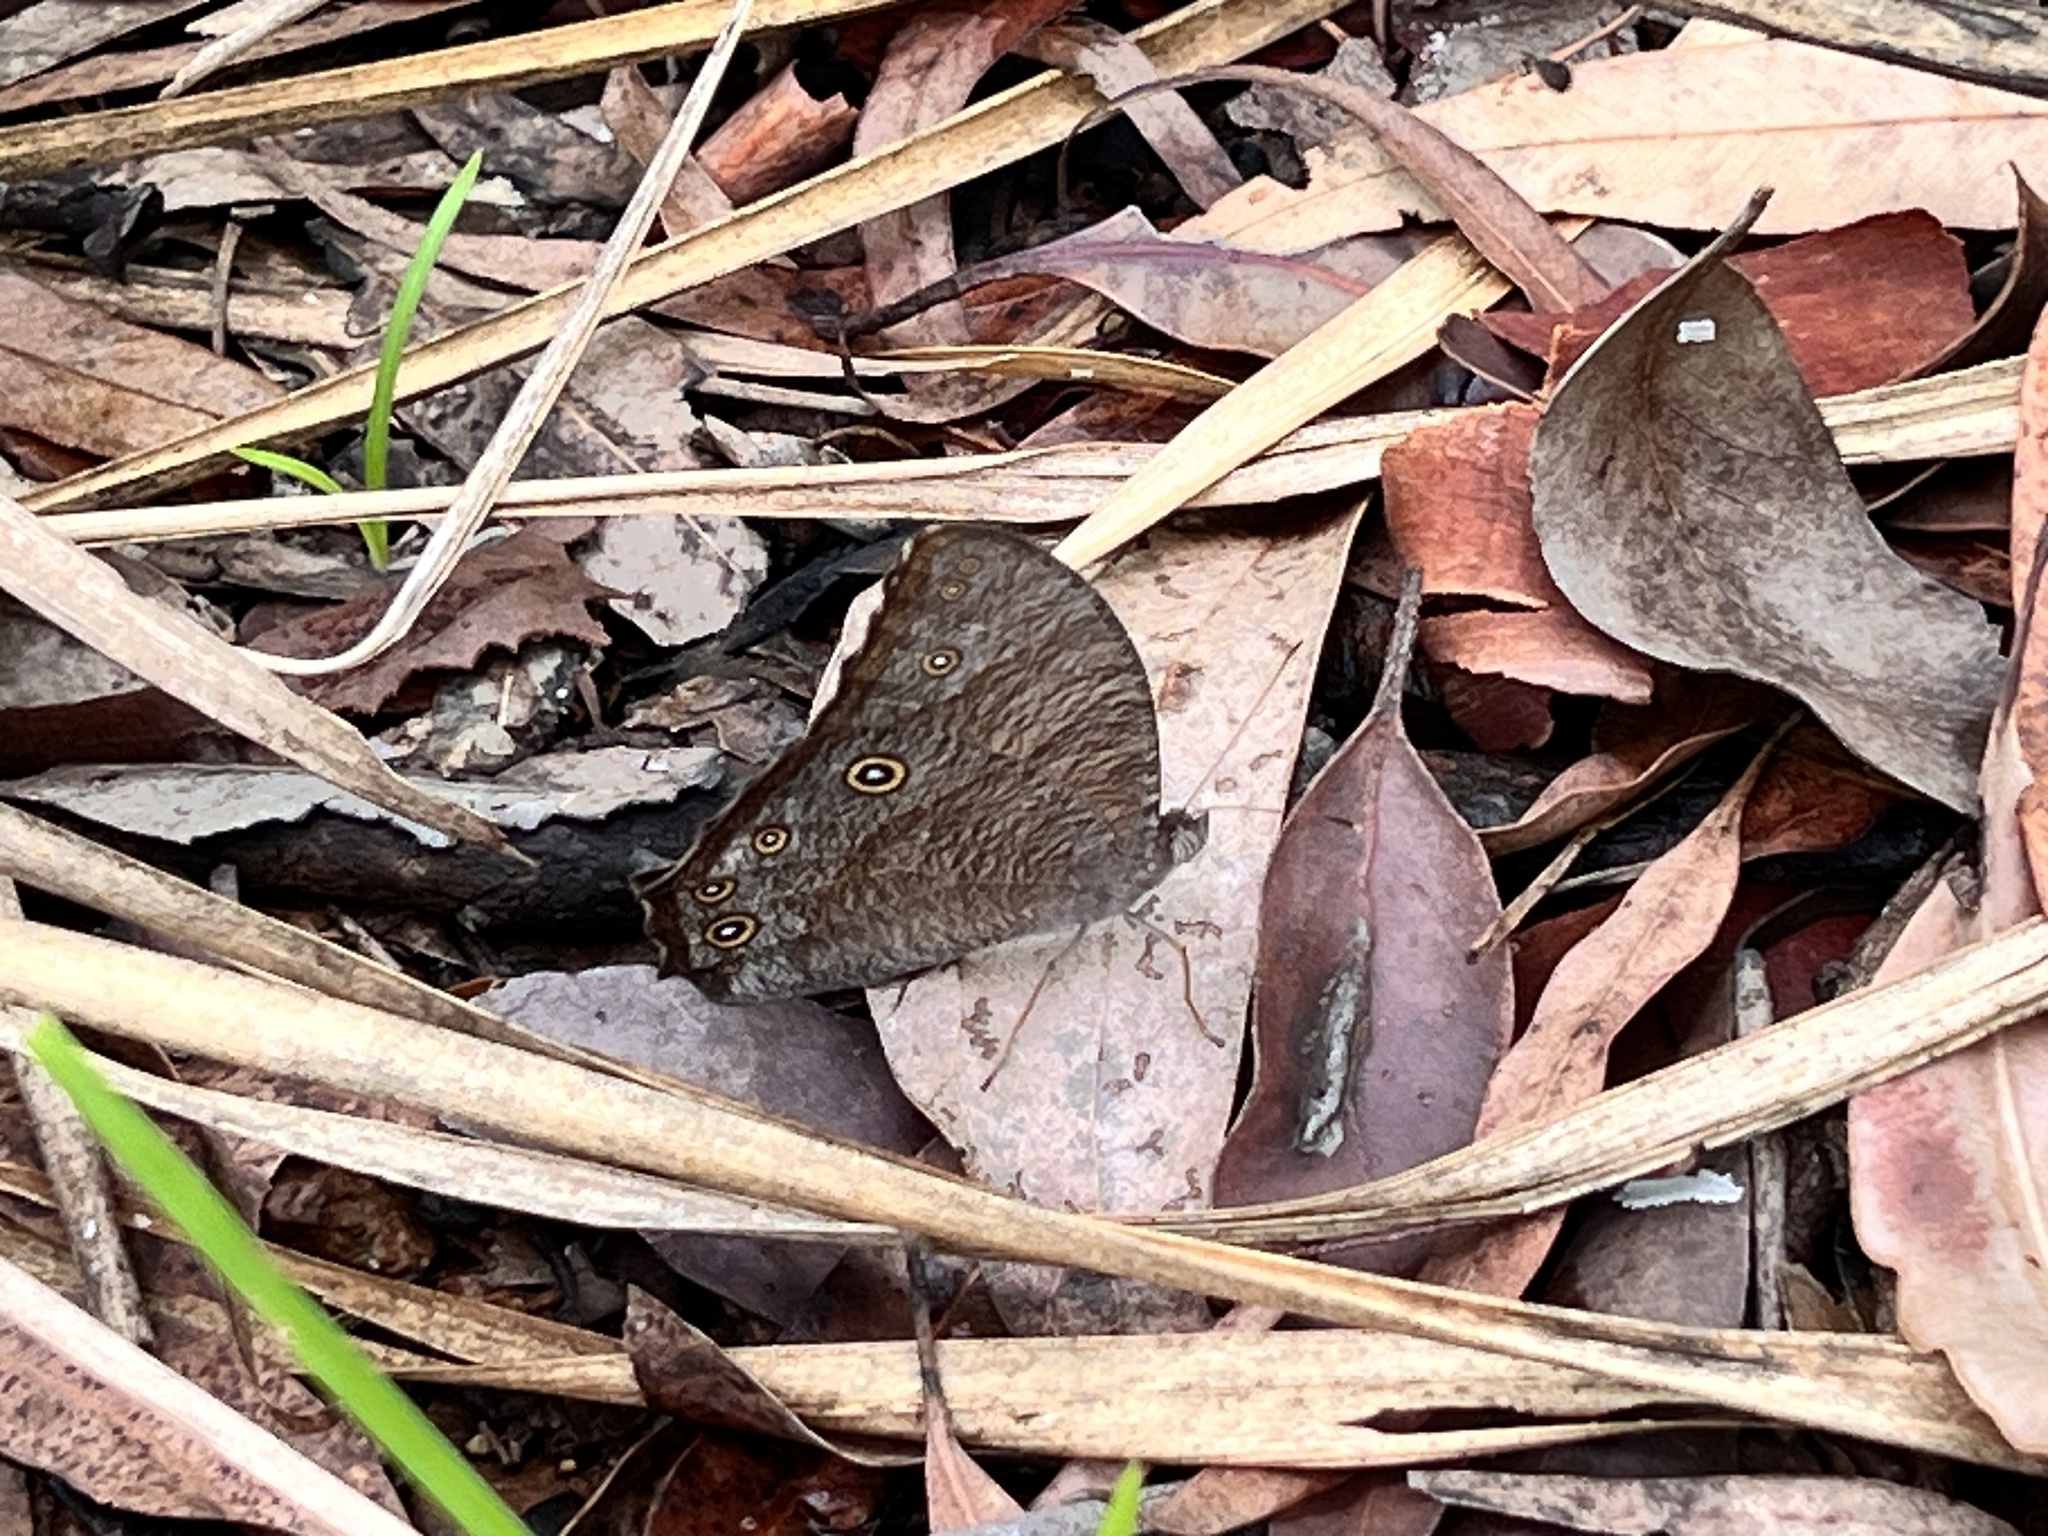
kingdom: Animalia
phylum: Arthropoda
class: Insecta
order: Lepidoptera
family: Nymphalidae
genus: Melanitis
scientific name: Melanitis leda
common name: Twilight brown
